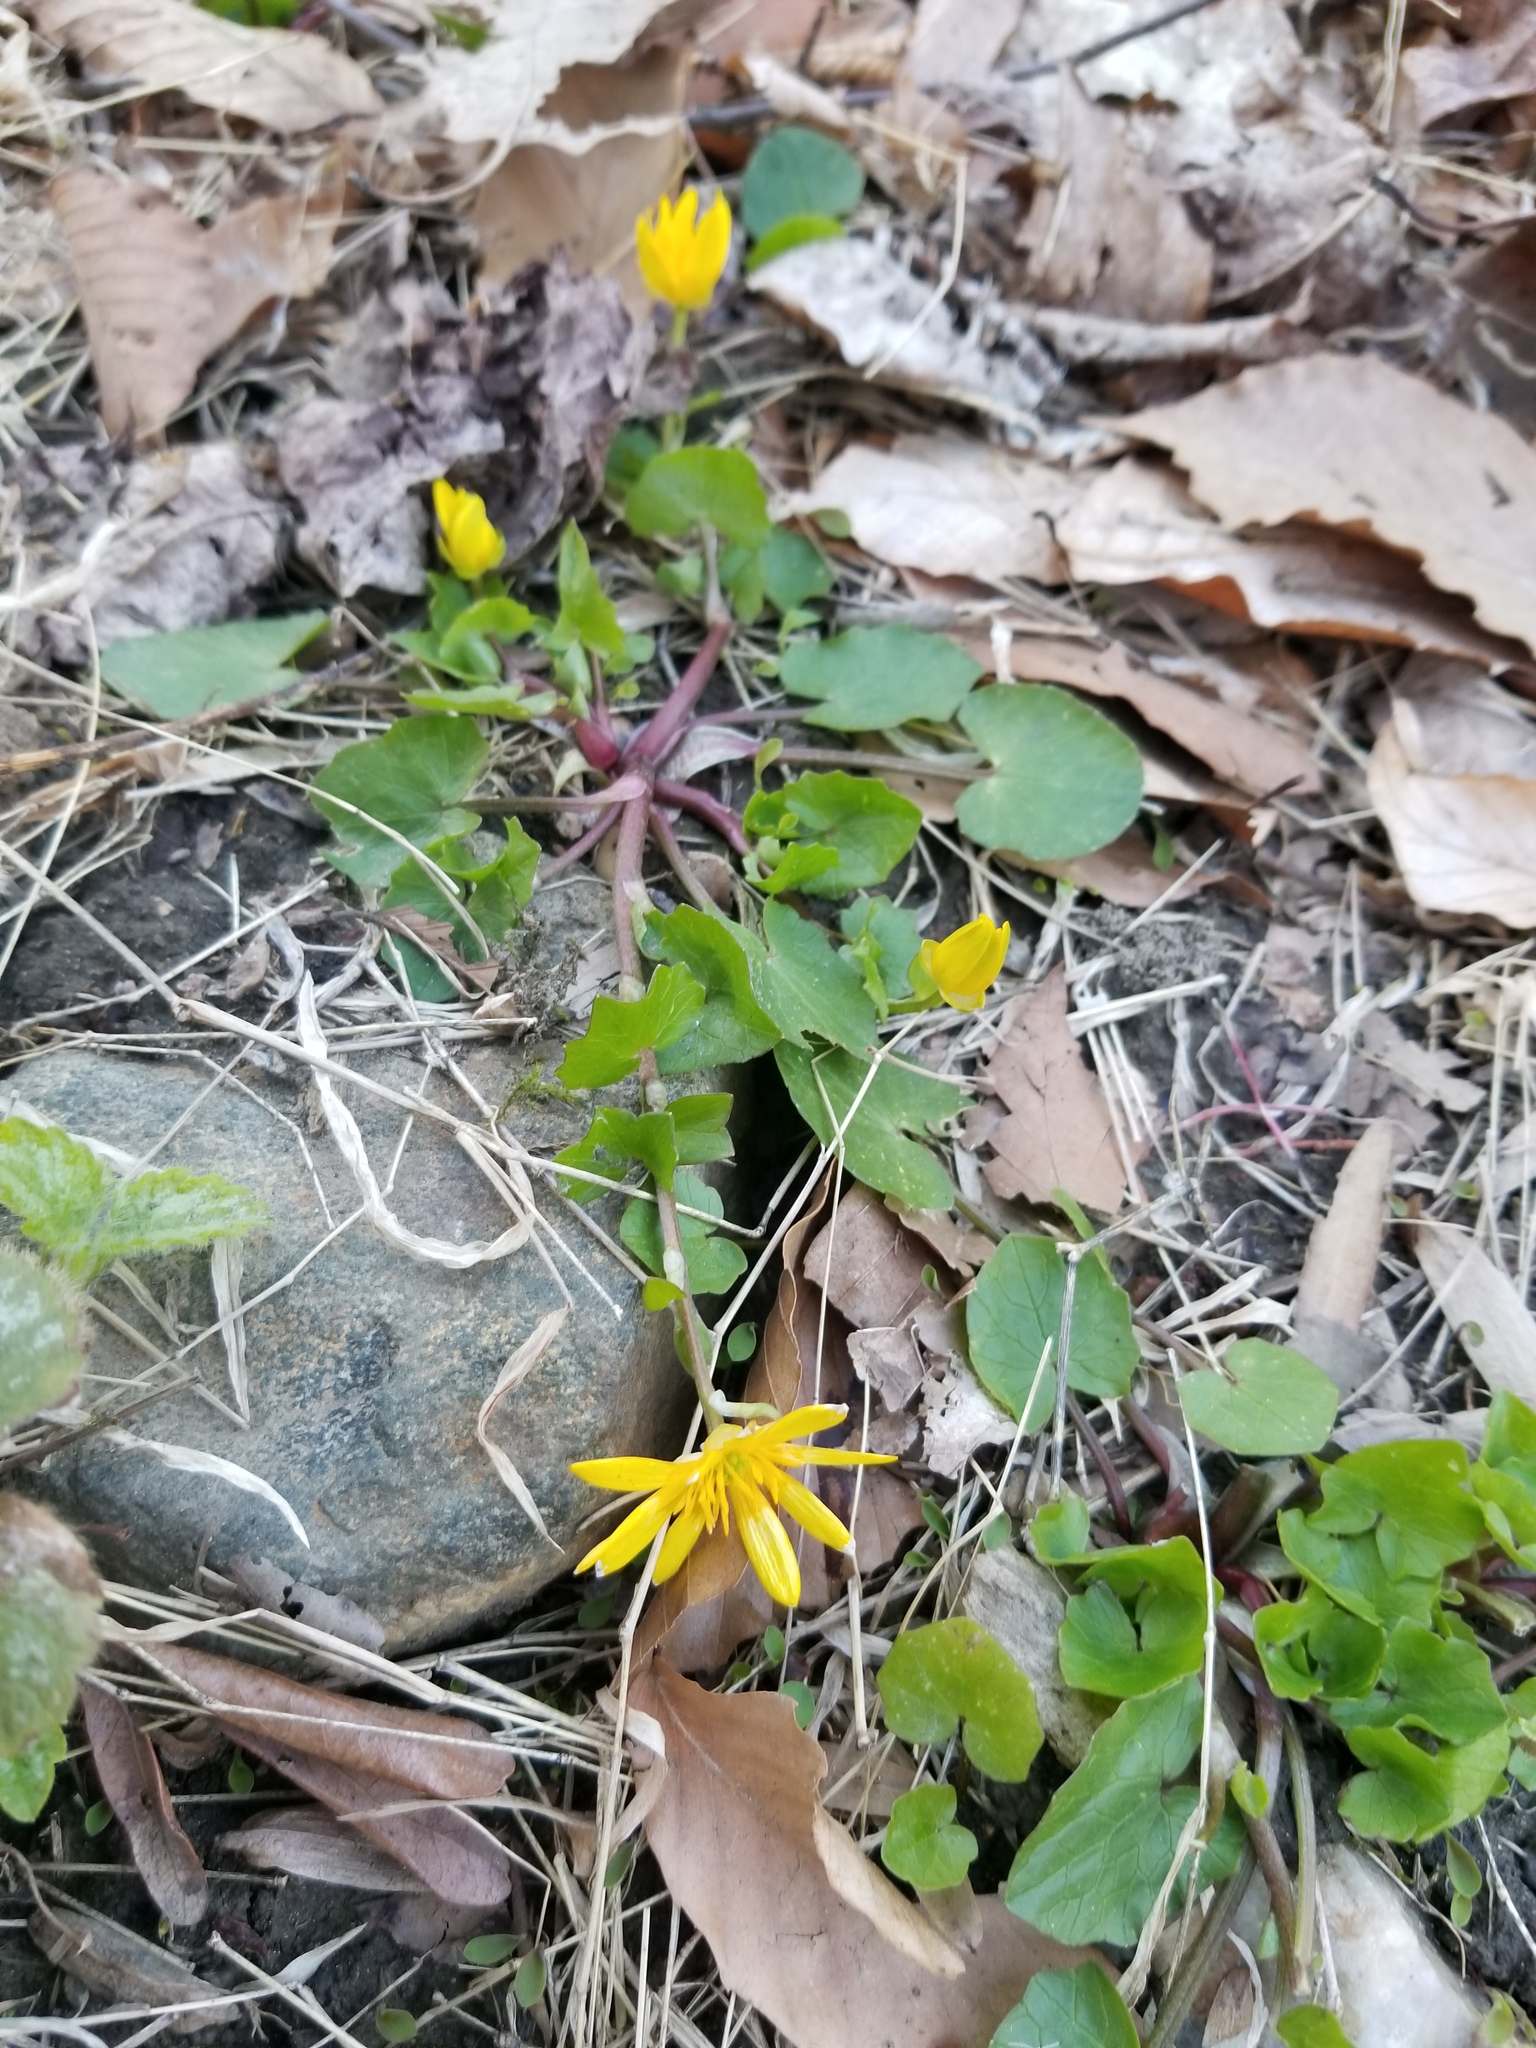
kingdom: Plantae
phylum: Tracheophyta
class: Magnoliopsida
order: Ranunculales
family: Ranunculaceae
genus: Ficaria
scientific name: Ficaria verna
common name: Lesser celandine
